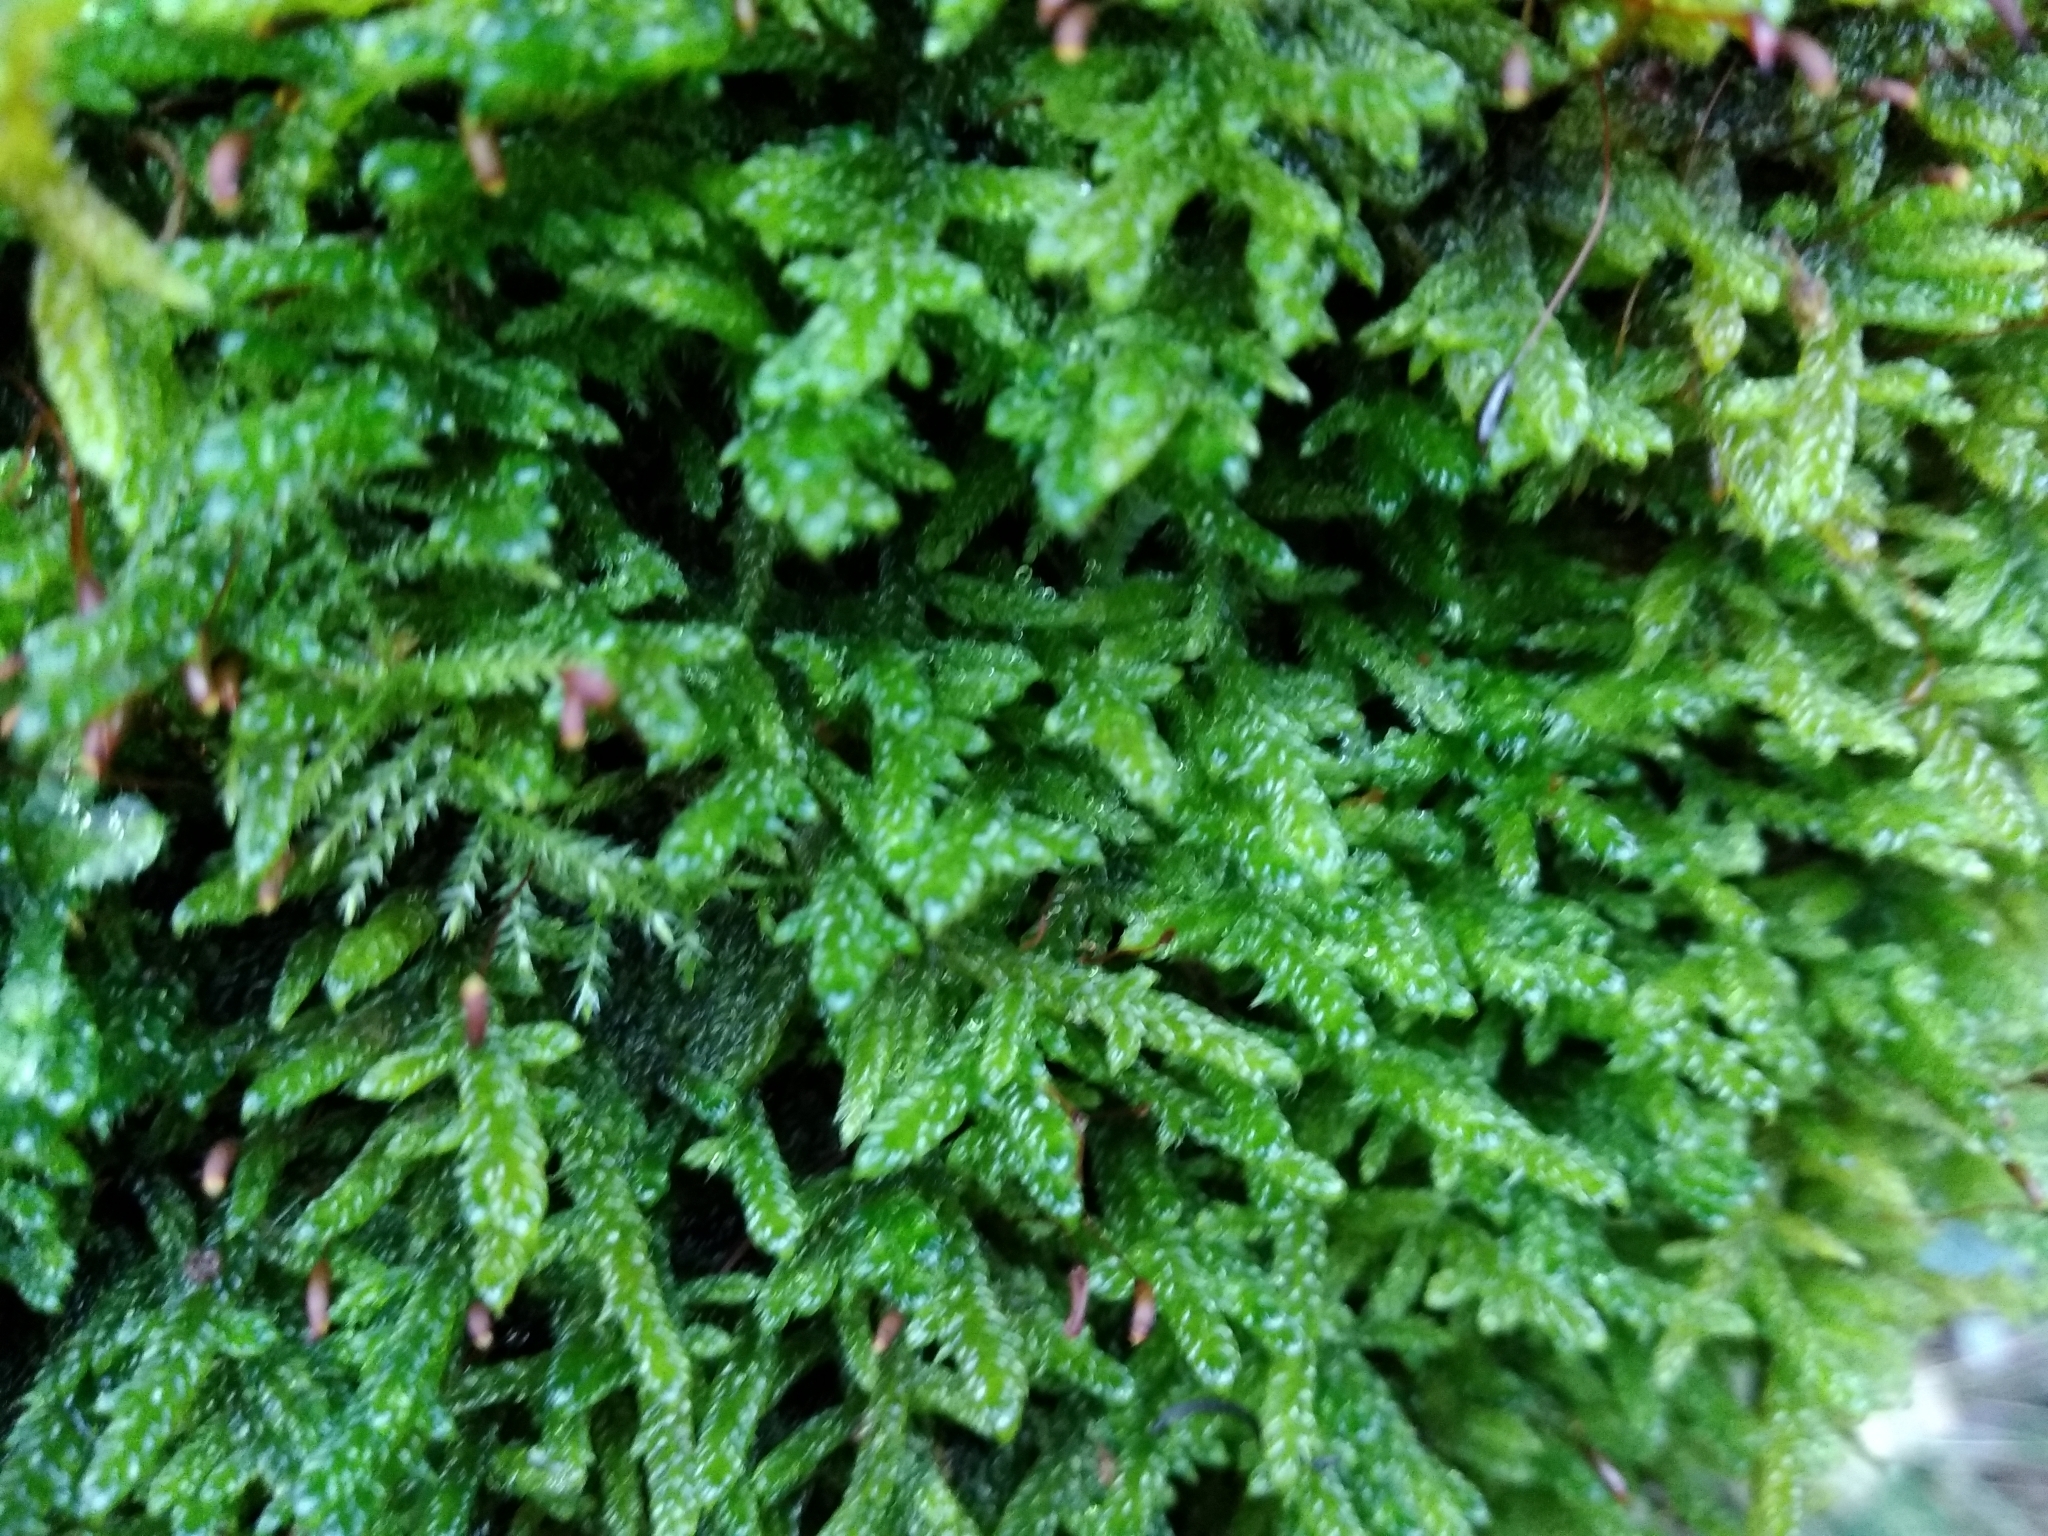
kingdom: Plantae
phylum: Bryophyta
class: Bryopsida
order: Hypnales
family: Hypnaceae
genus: Hypnum
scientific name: Hypnum cupressiforme
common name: Cypress-leaved plait-moss
